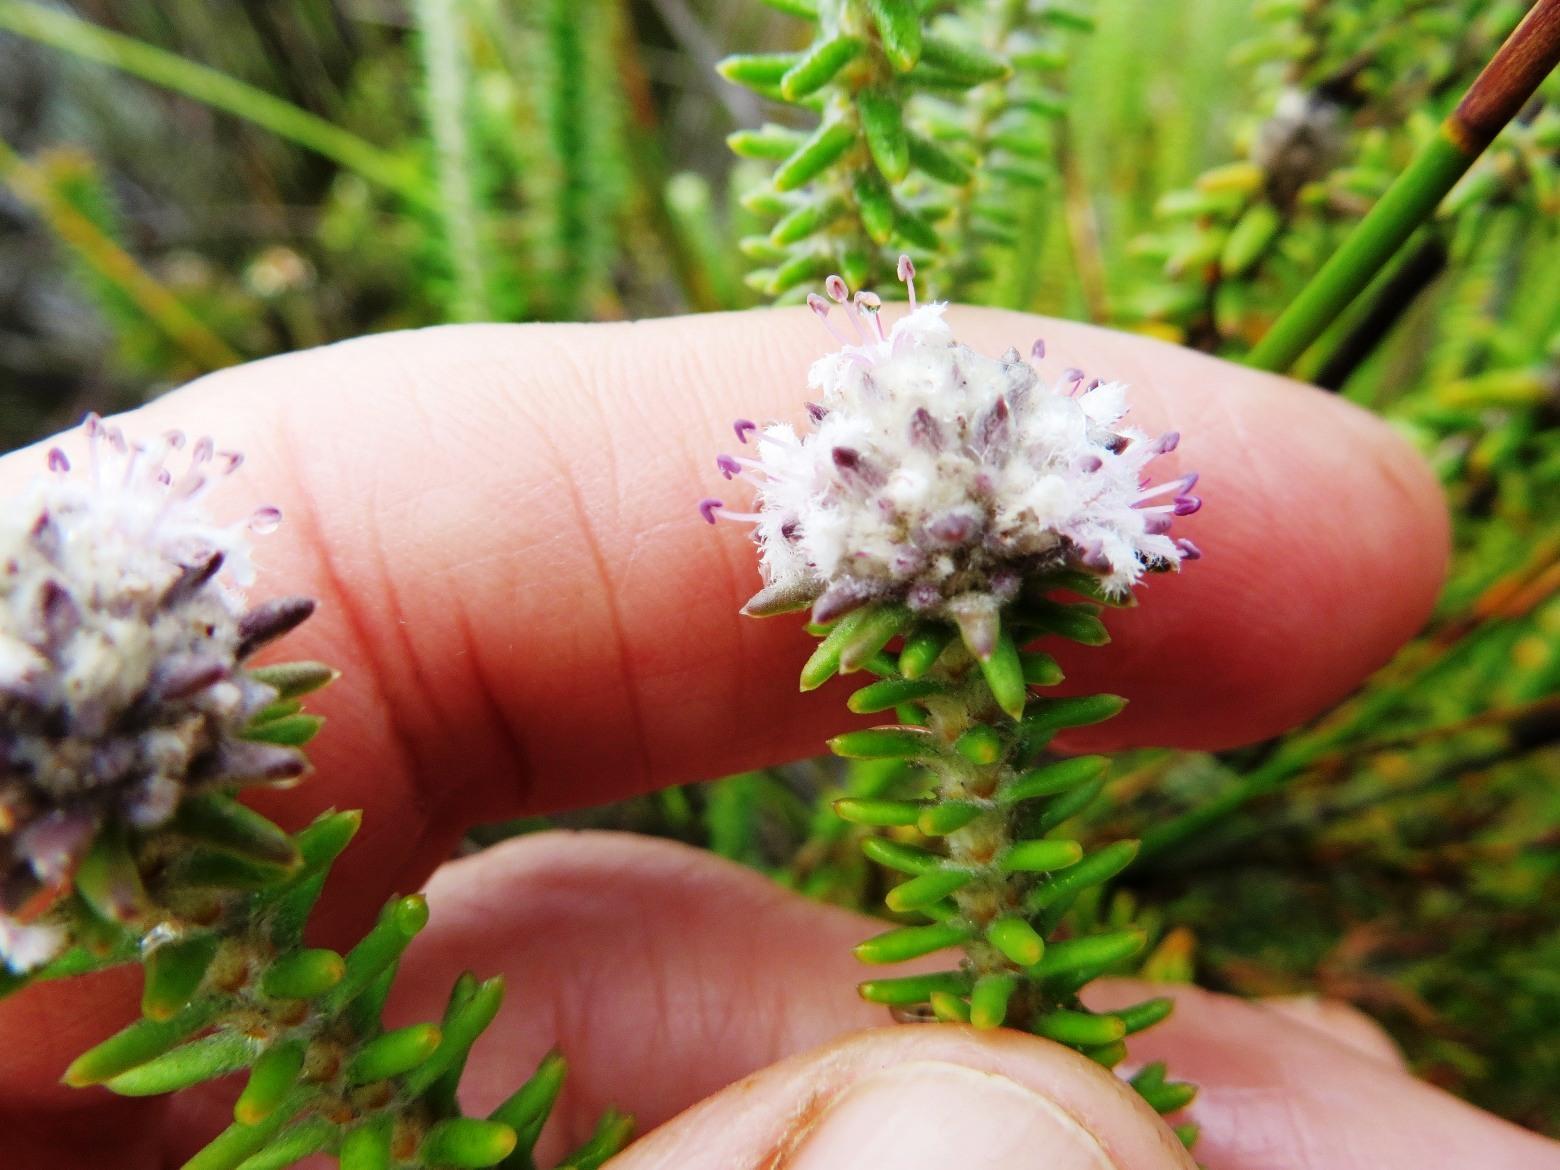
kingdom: Plantae
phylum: Tracheophyta
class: Magnoliopsida
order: Lamiales
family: Stilbaceae
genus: Kogelbergia
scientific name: Kogelbergia verticillata
